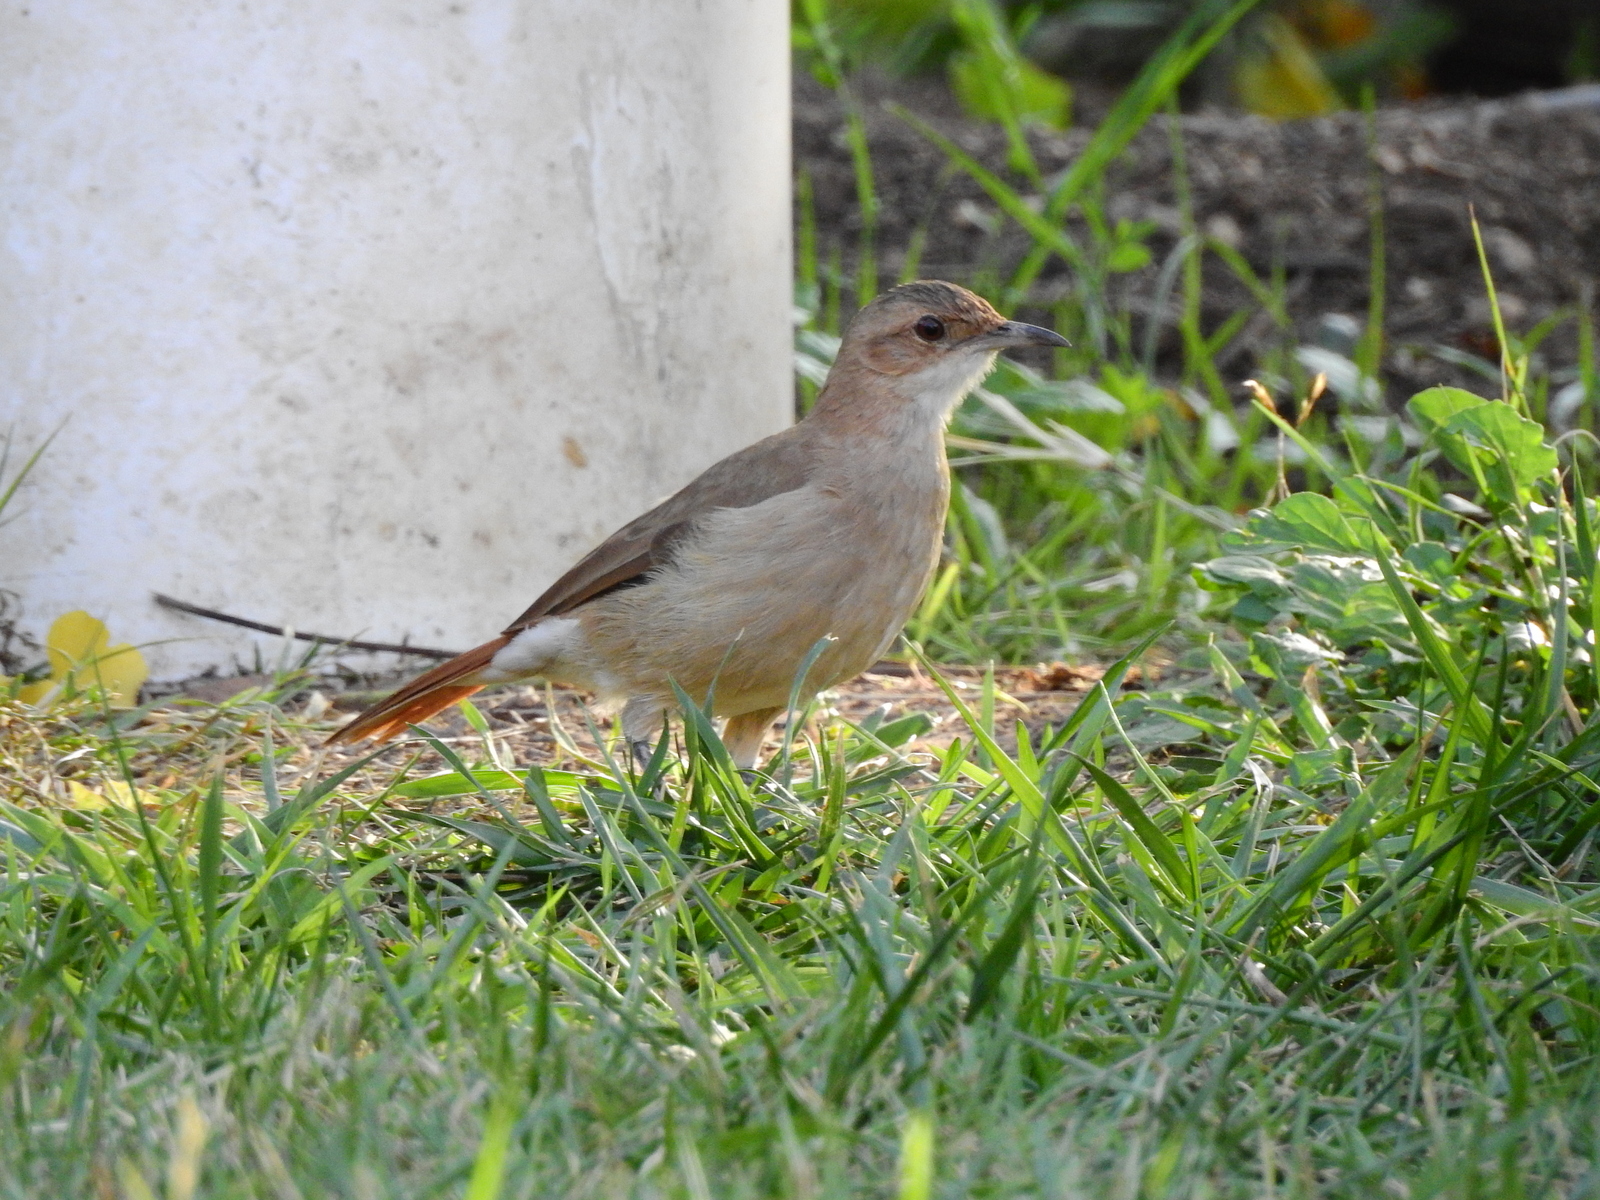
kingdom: Animalia
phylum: Chordata
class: Aves
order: Passeriformes
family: Furnariidae
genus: Furnarius
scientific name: Furnarius rufus
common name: Rufous hornero
